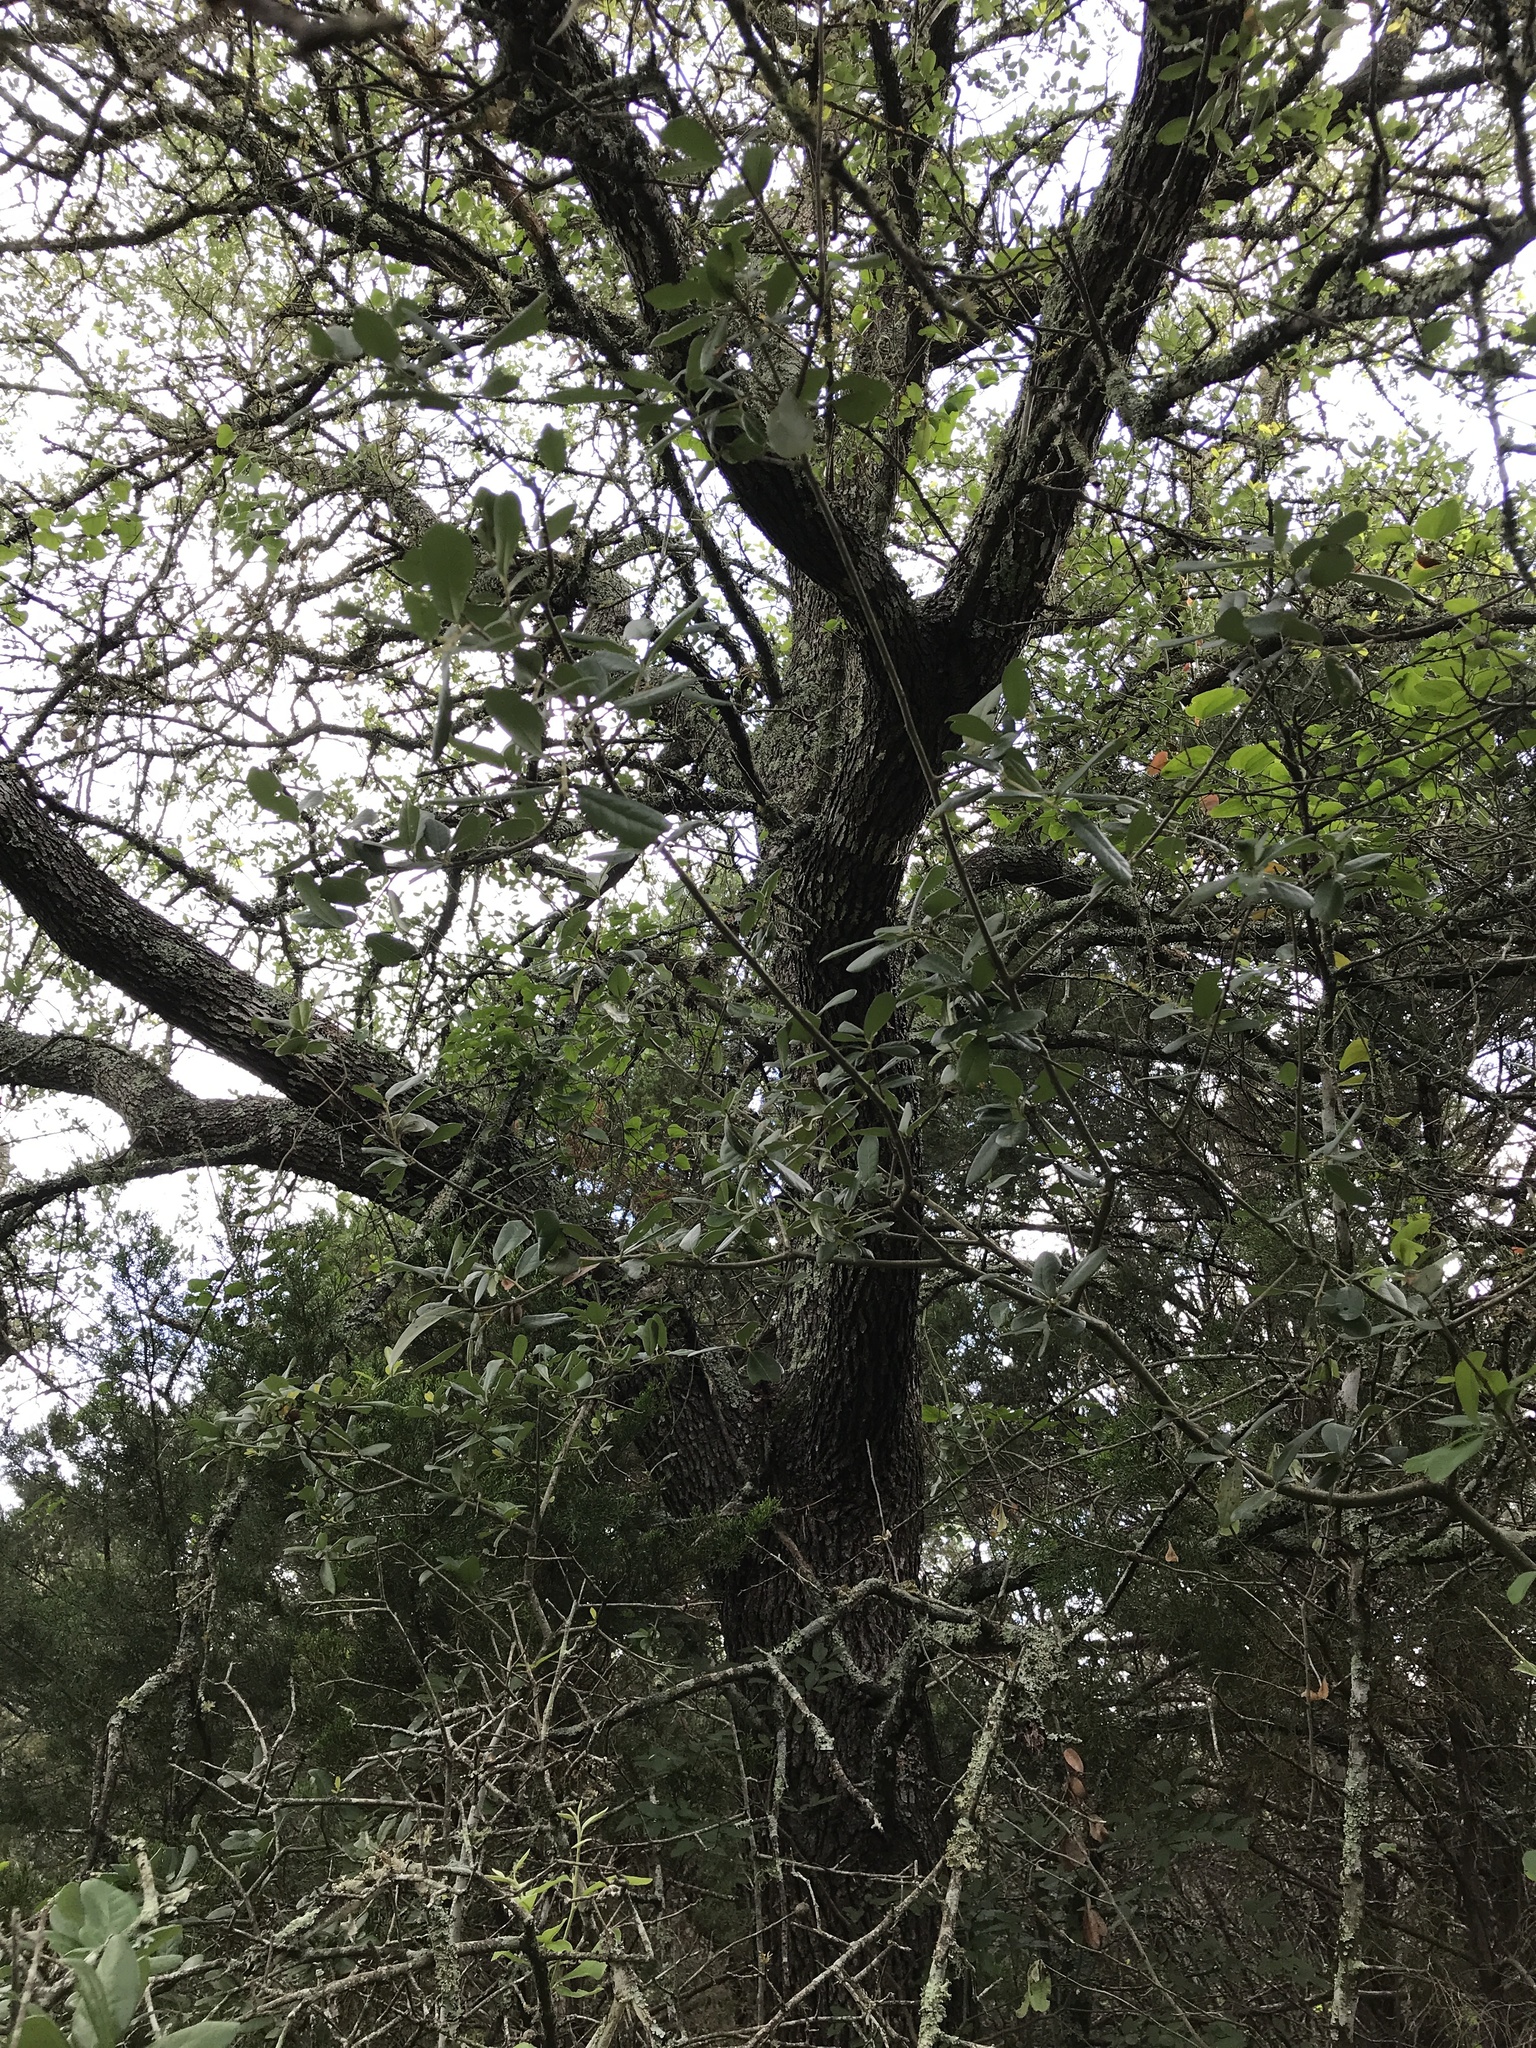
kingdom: Plantae
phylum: Tracheophyta
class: Magnoliopsida
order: Fagales
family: Fagaceae
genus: Quercus
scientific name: Quercus fusiformis
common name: Texas live oak
